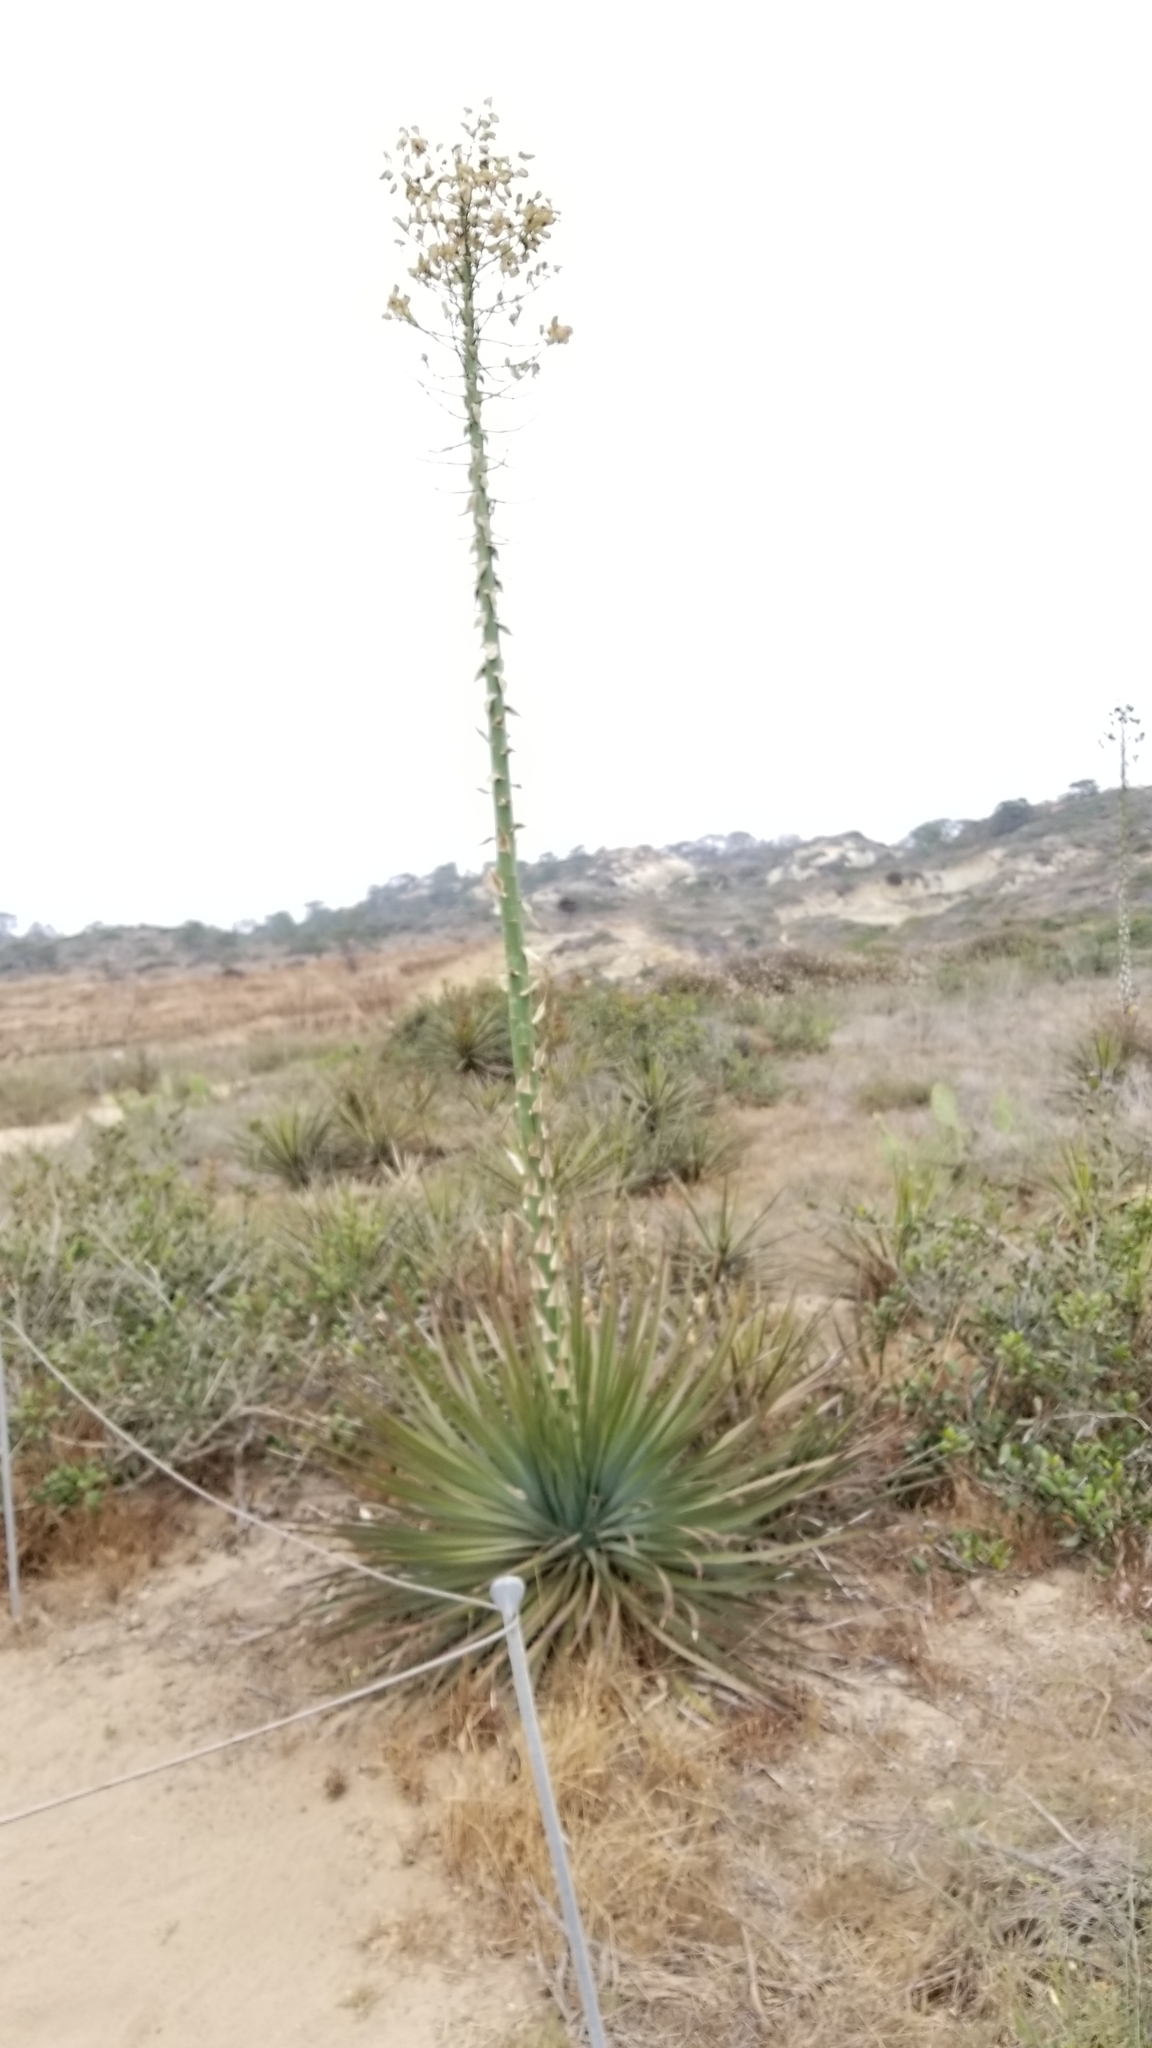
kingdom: Plantae
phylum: Tracheophyta
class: Liliopsida
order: Asparagales
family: Asparagaceae
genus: Hesperoyucca
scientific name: Hesperoyucca whipplei
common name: Our lord's-candle
